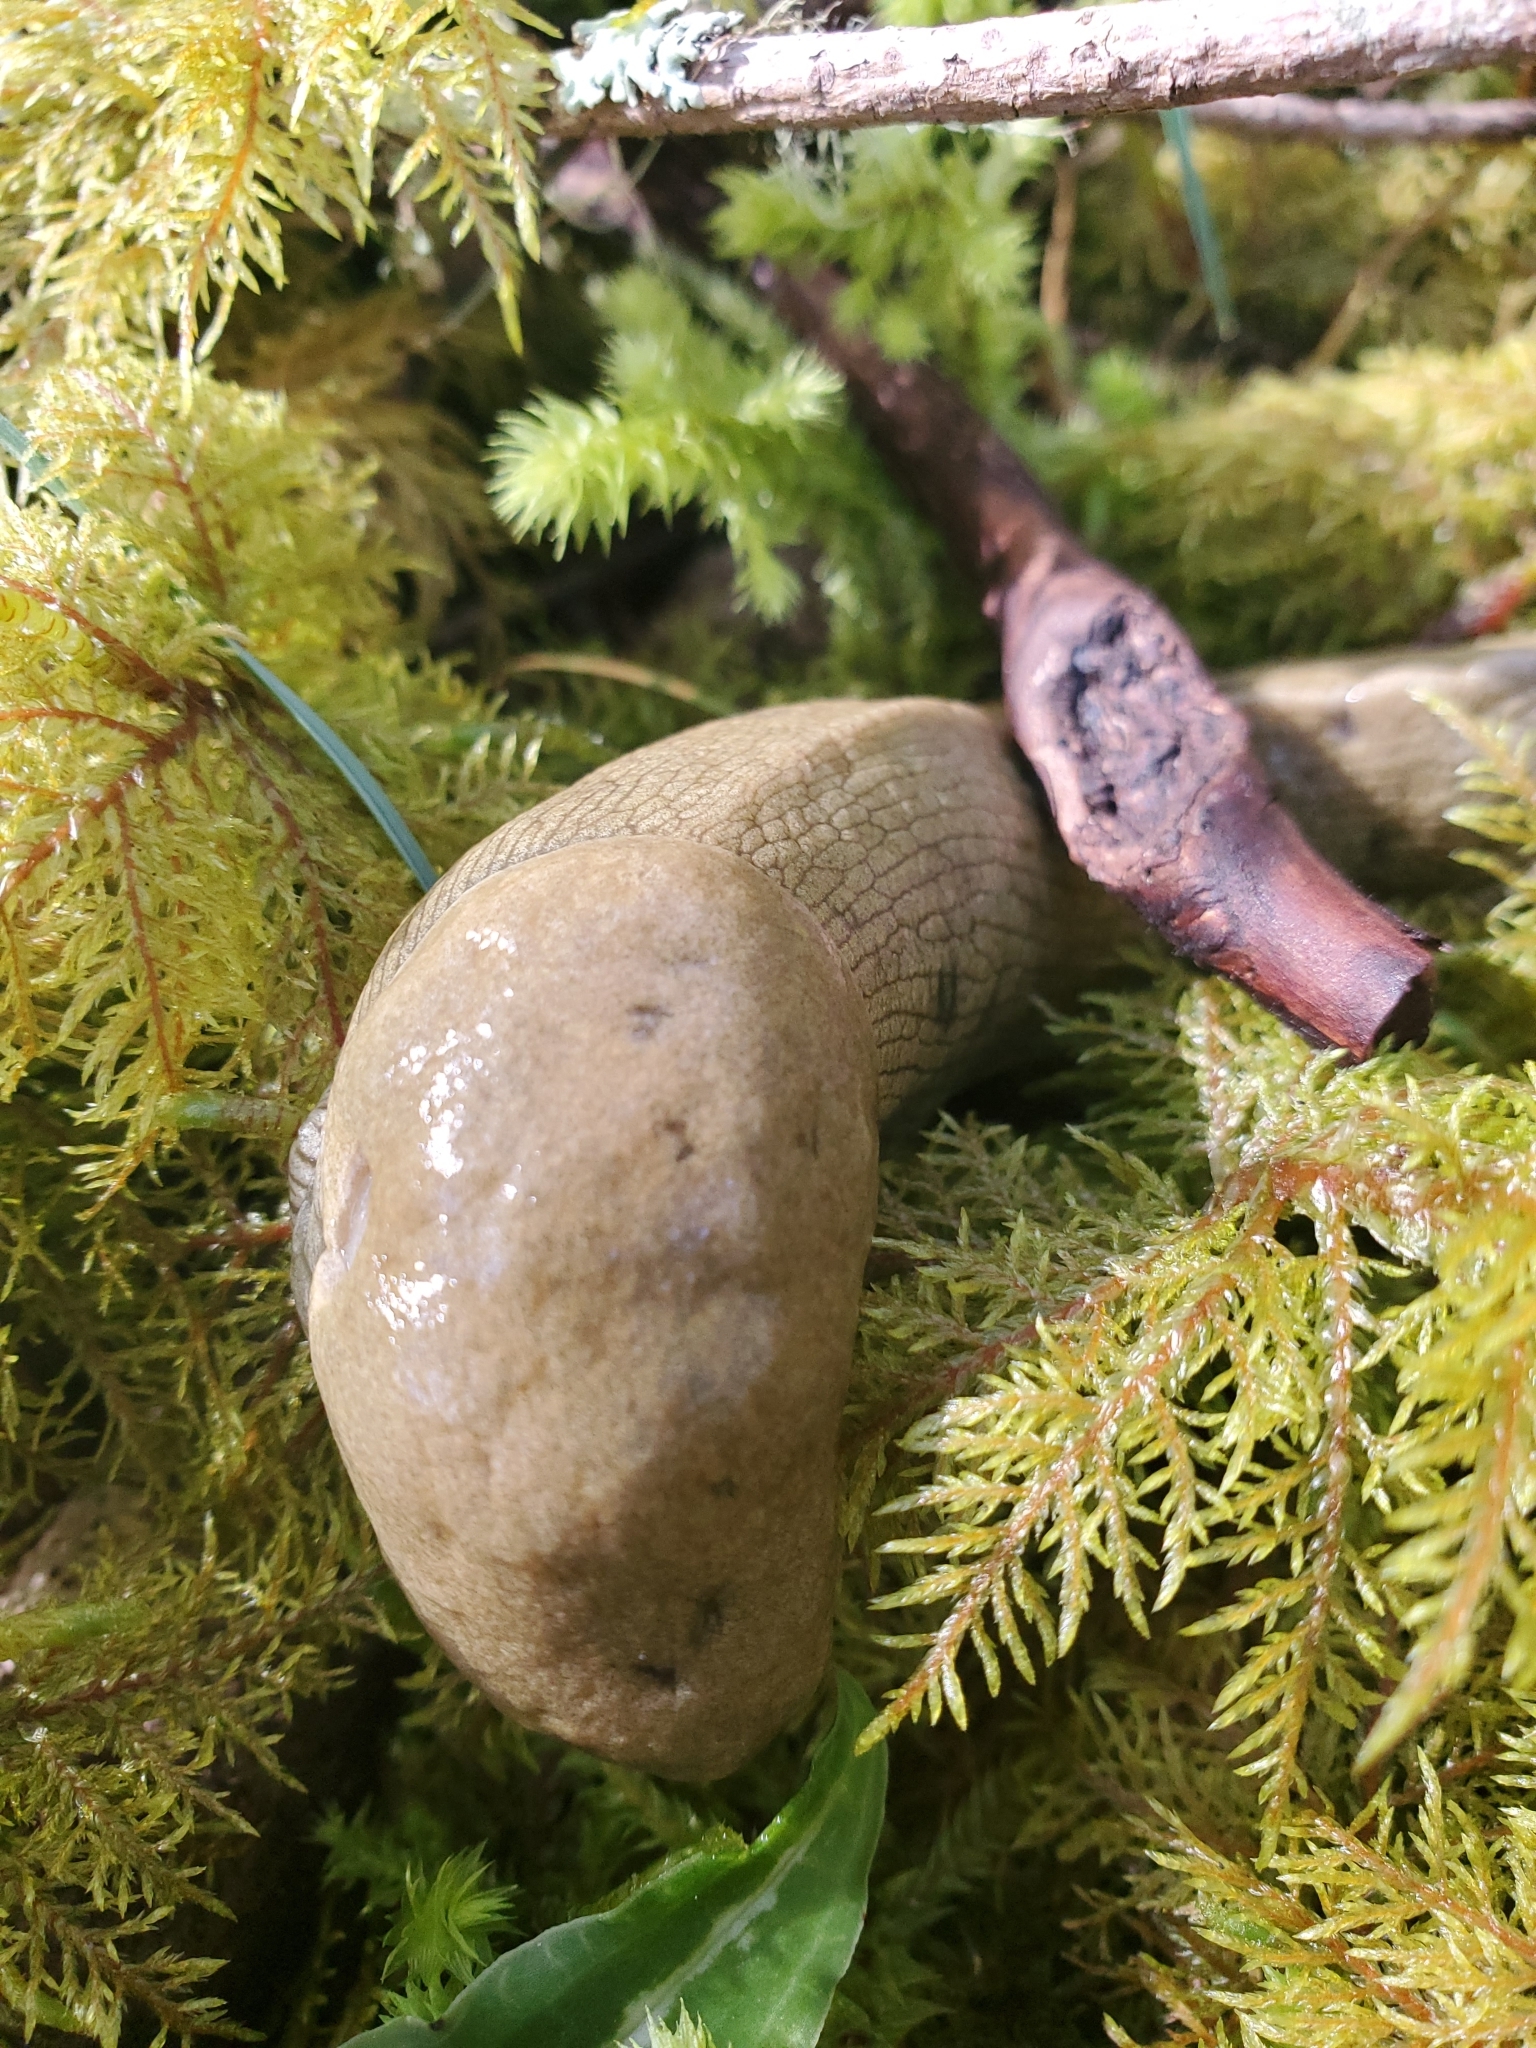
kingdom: Animalia
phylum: Mollusca
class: Gastropoda
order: Stylommatophora
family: Ariolimacidae
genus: Ariolimax
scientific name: Ariolimax columbianus
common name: Pacific banana slug
